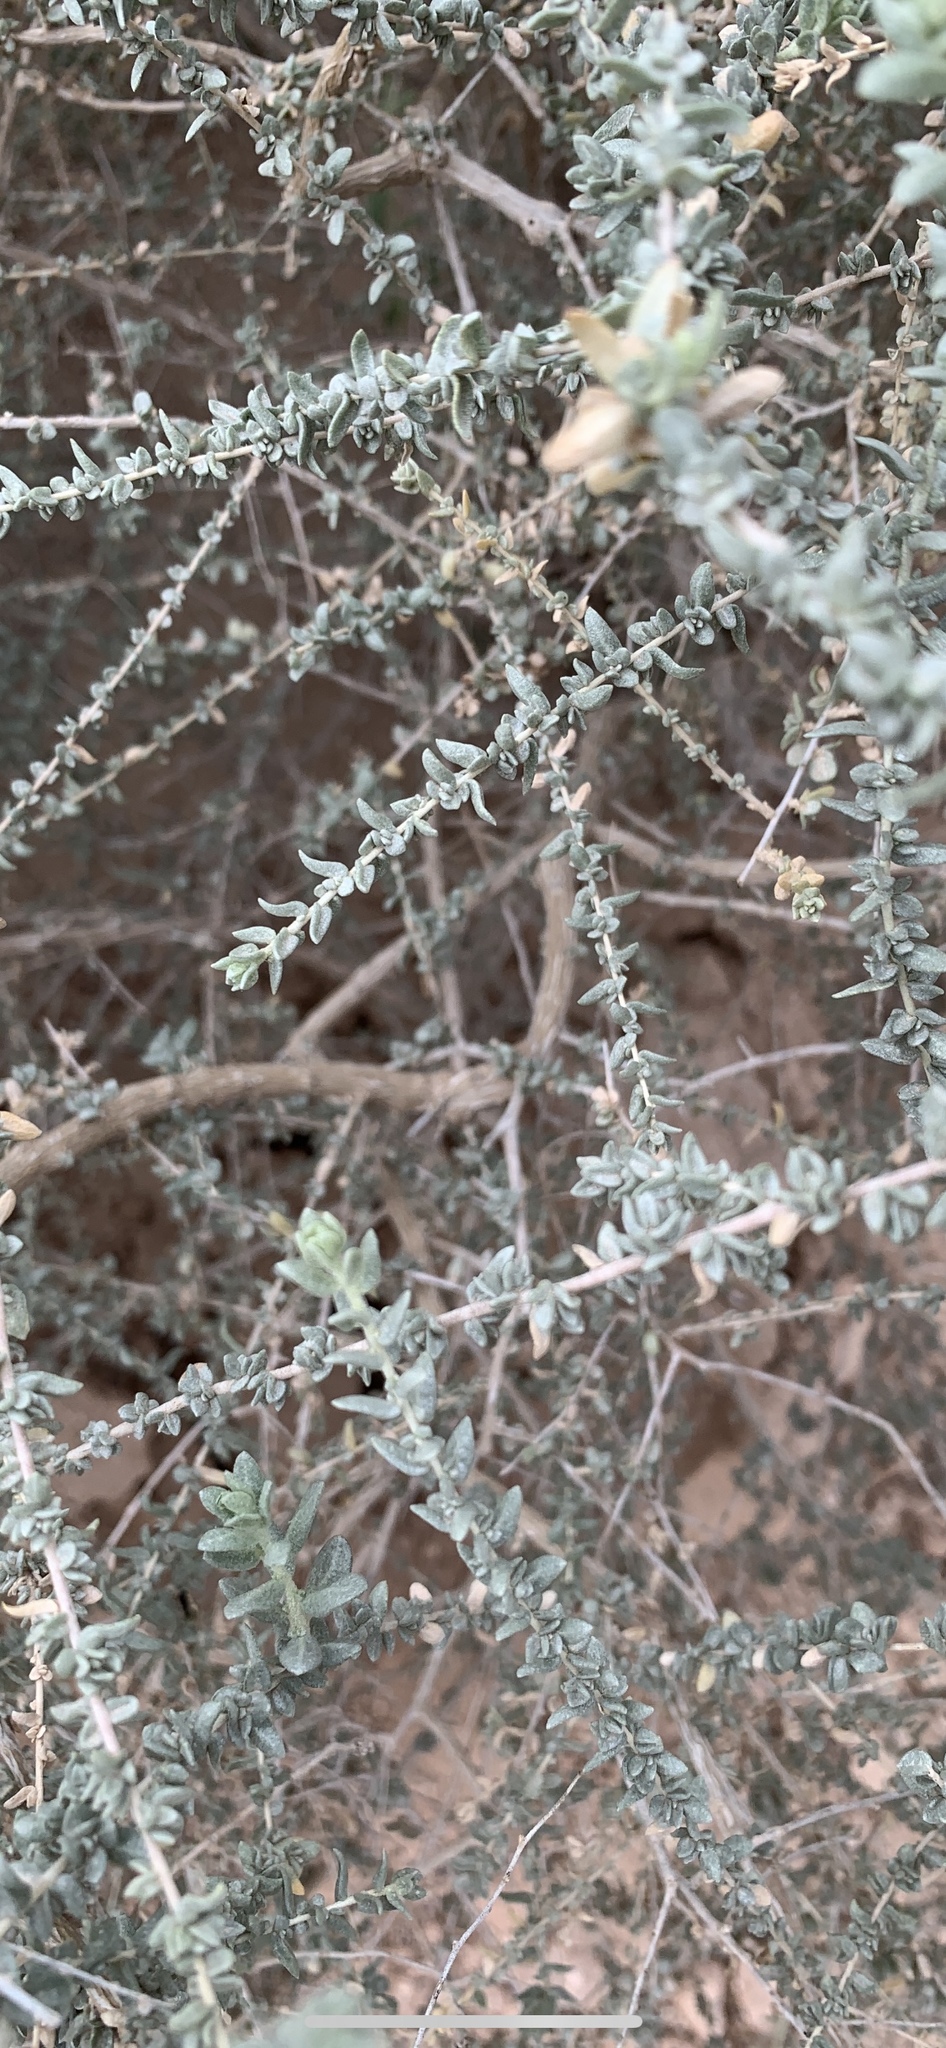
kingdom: Plantae
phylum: Tracheophyta
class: Magnoliopsida
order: Caryophyllales
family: Amaranthaceae
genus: Atriplex
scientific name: Atriplex polycarpa
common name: Desert saltbush
